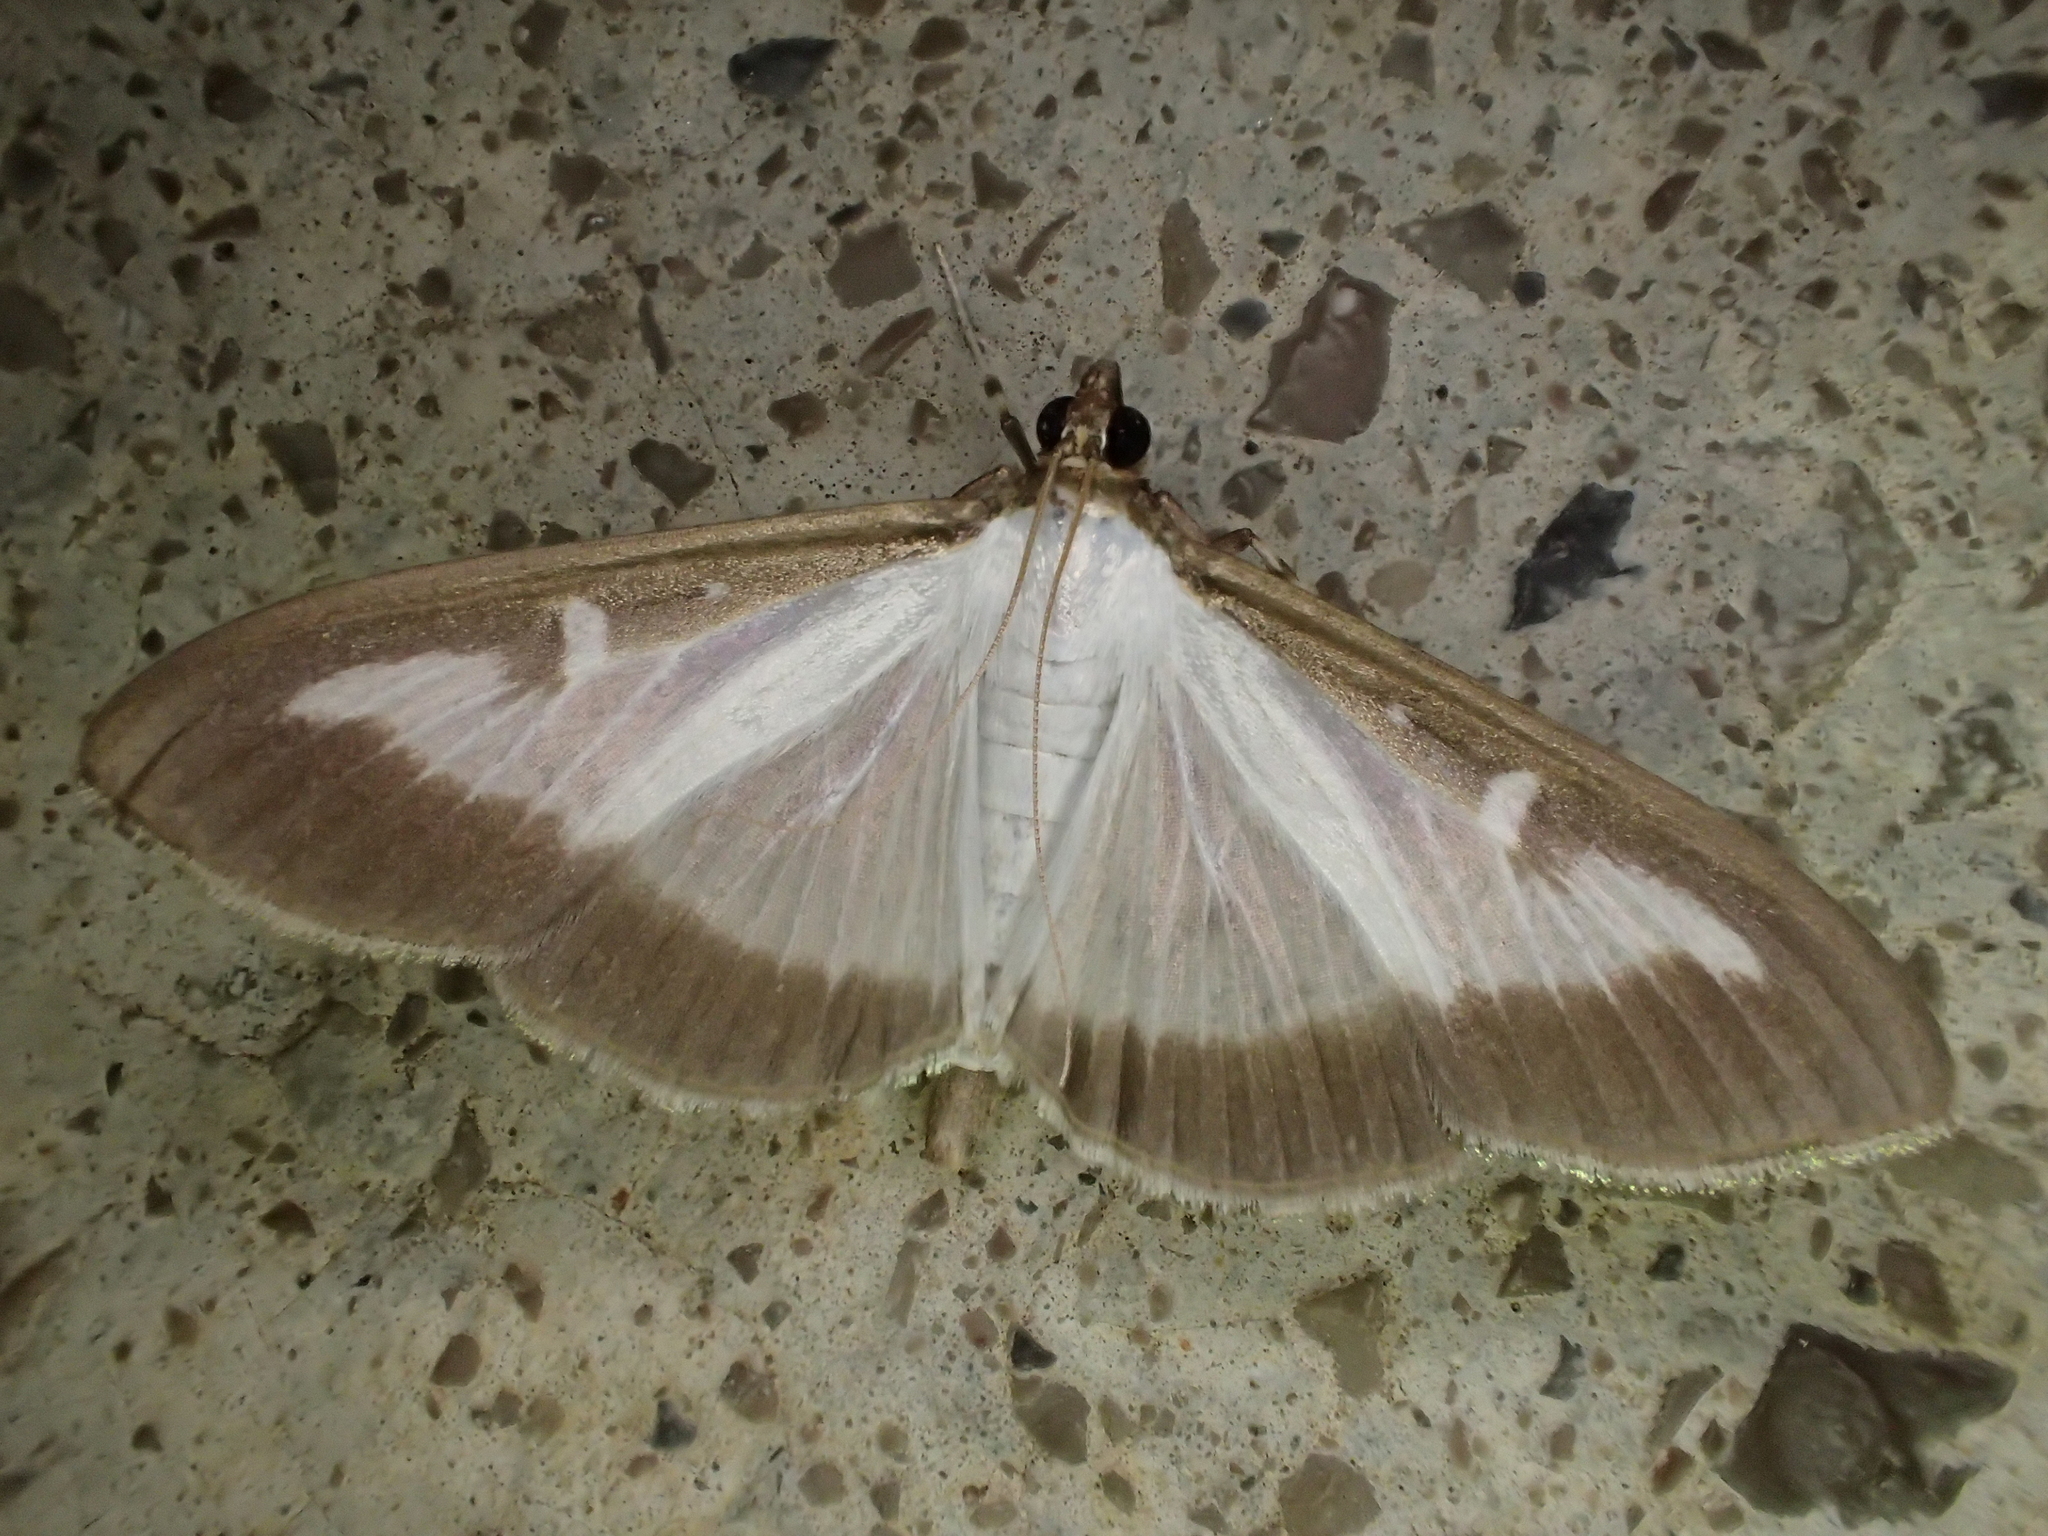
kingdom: Animalia
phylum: Arthropoda
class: Insecta
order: Lepidoptera
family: Crambidae
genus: Cydalima
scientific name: Cydalima perspectalis
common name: Box tree moth
